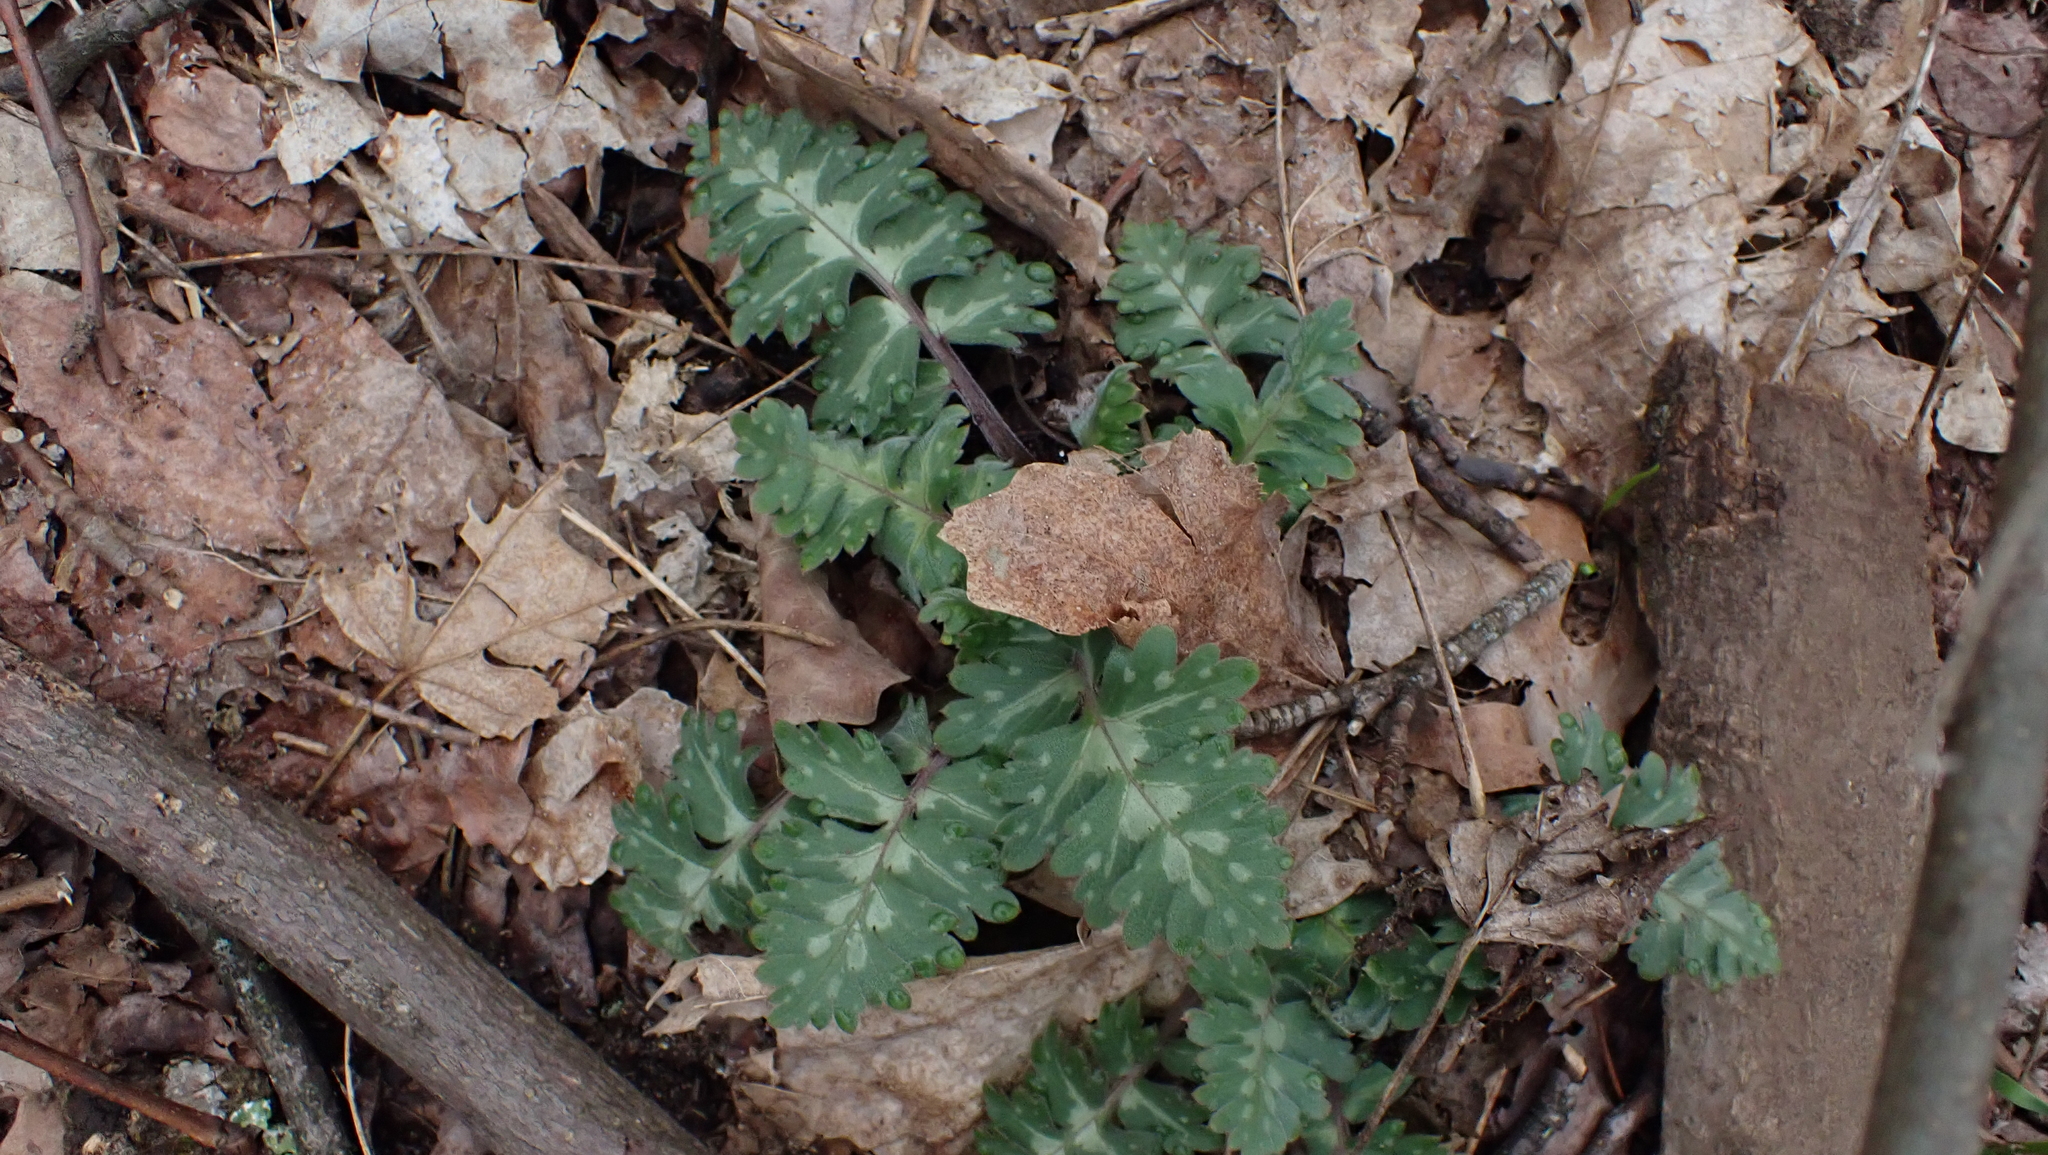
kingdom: Plantae
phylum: Tracheophyta
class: Magnoliopsida
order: Boraginales
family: Hydrophyllaceae
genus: Hydrophyllum
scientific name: Hydrophyllum macrophyllum
